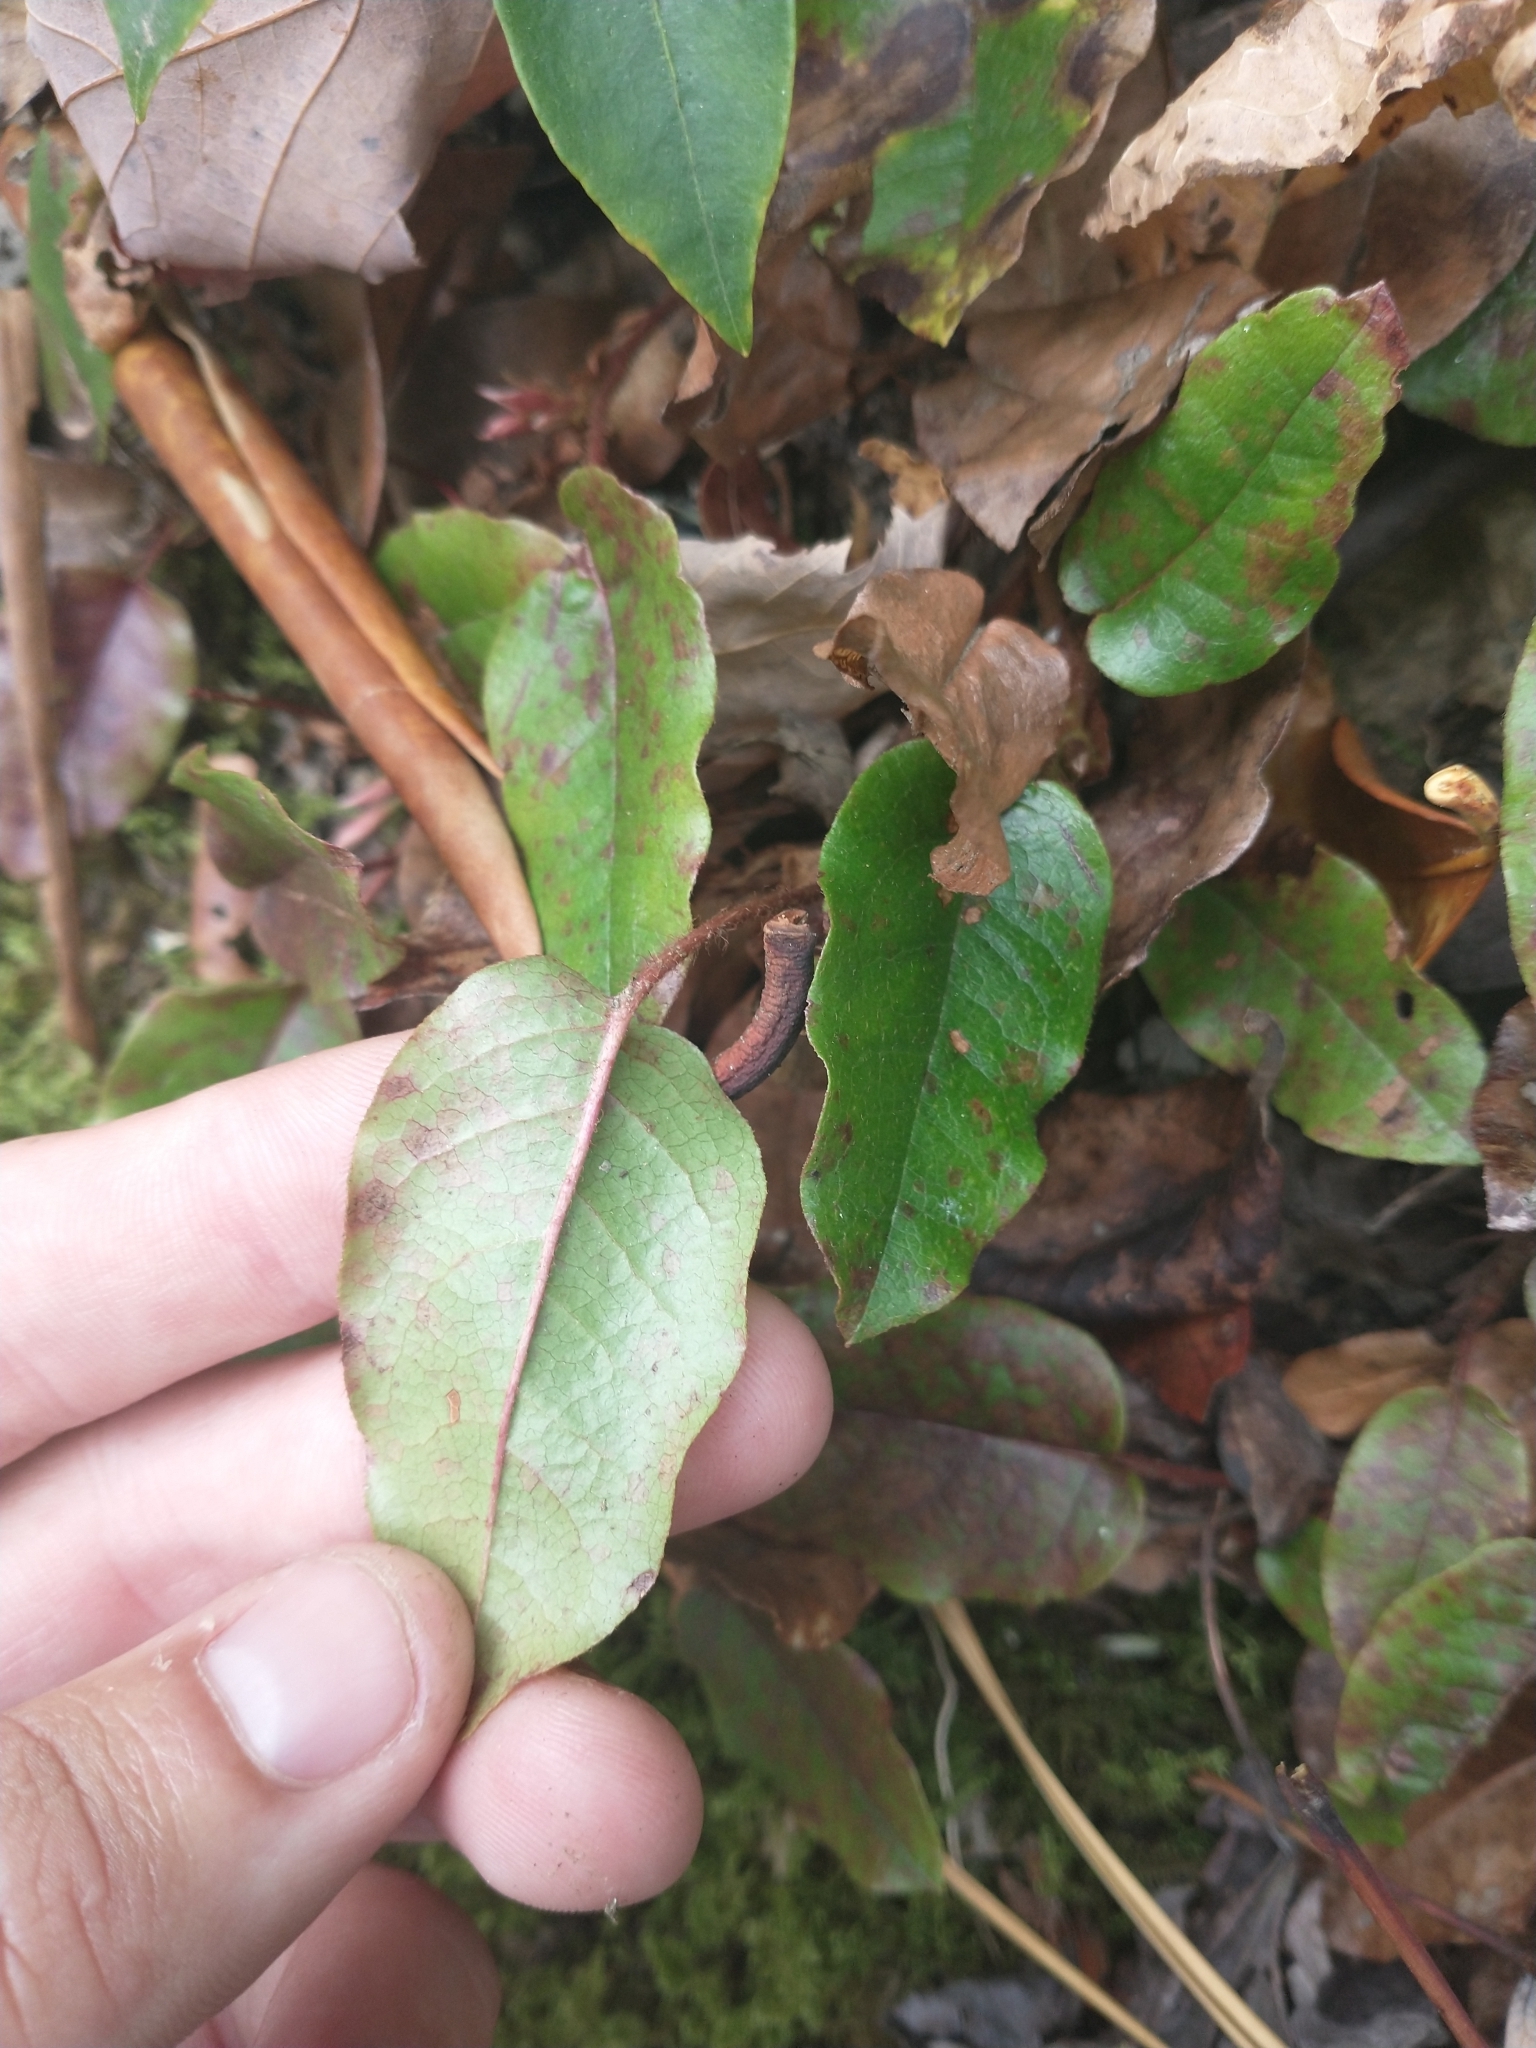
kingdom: Plantae
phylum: Tracheophyta
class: Magnoliopsida
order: Ericales
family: Ericaceae
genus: Epigaea
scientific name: Epigaea repens
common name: Gravelroot
